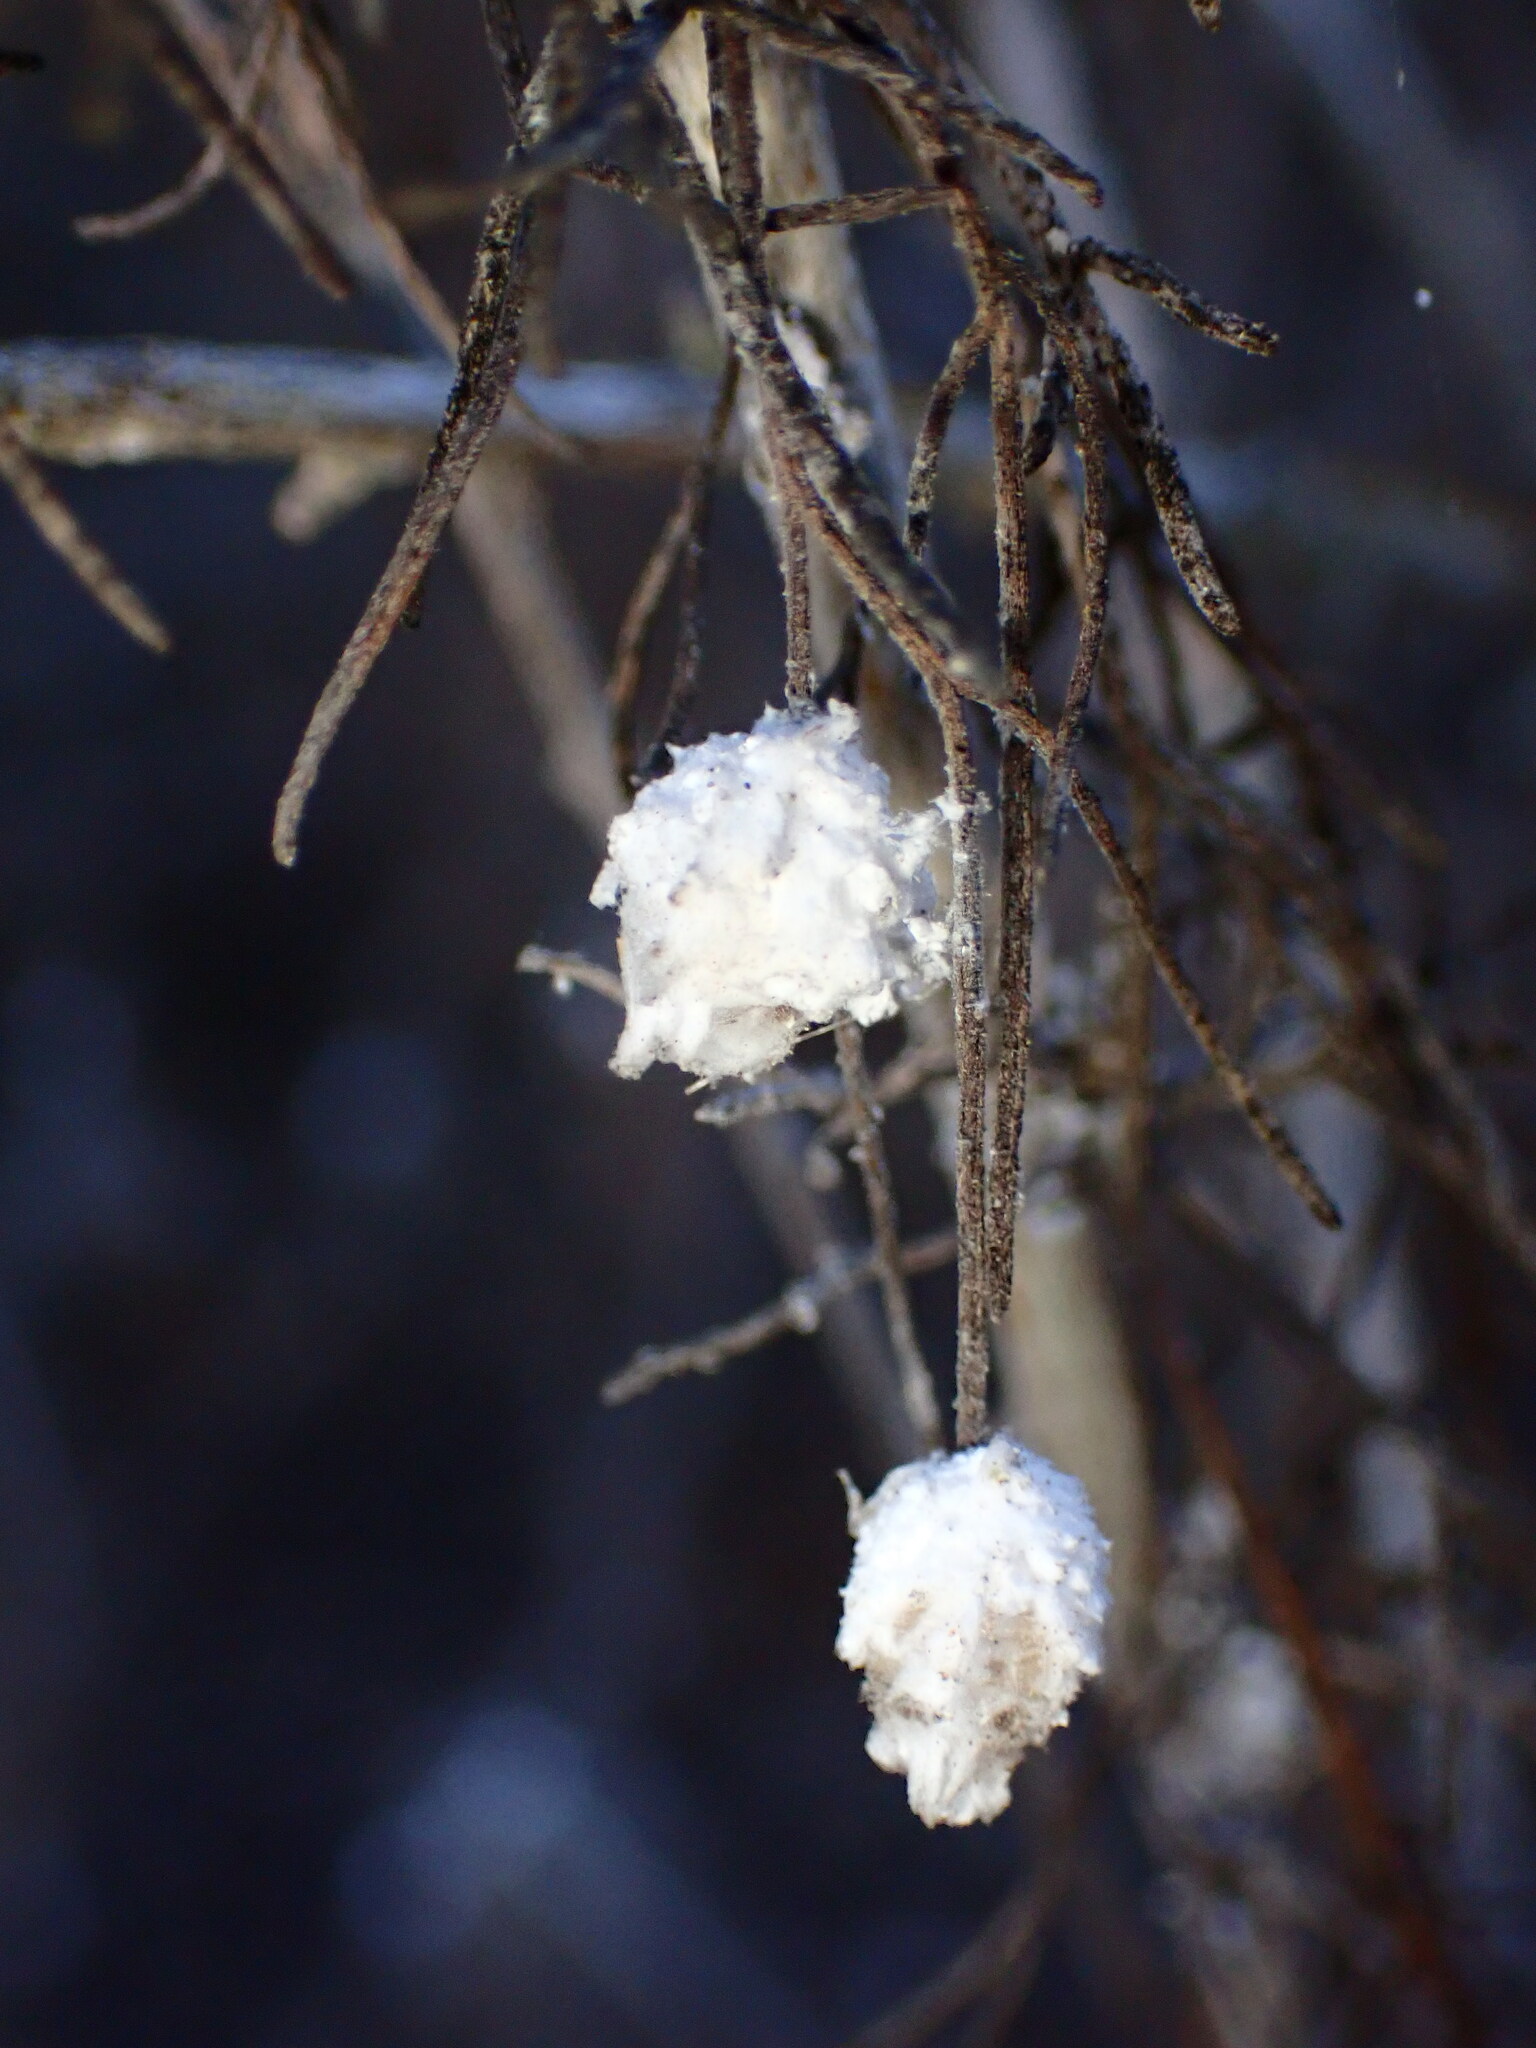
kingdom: Animalia
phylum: Arthropoda
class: Insecta
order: Diptera
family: Cecidomyiidae
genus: Rhopalomyia
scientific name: Rhopalomyia floccosa
